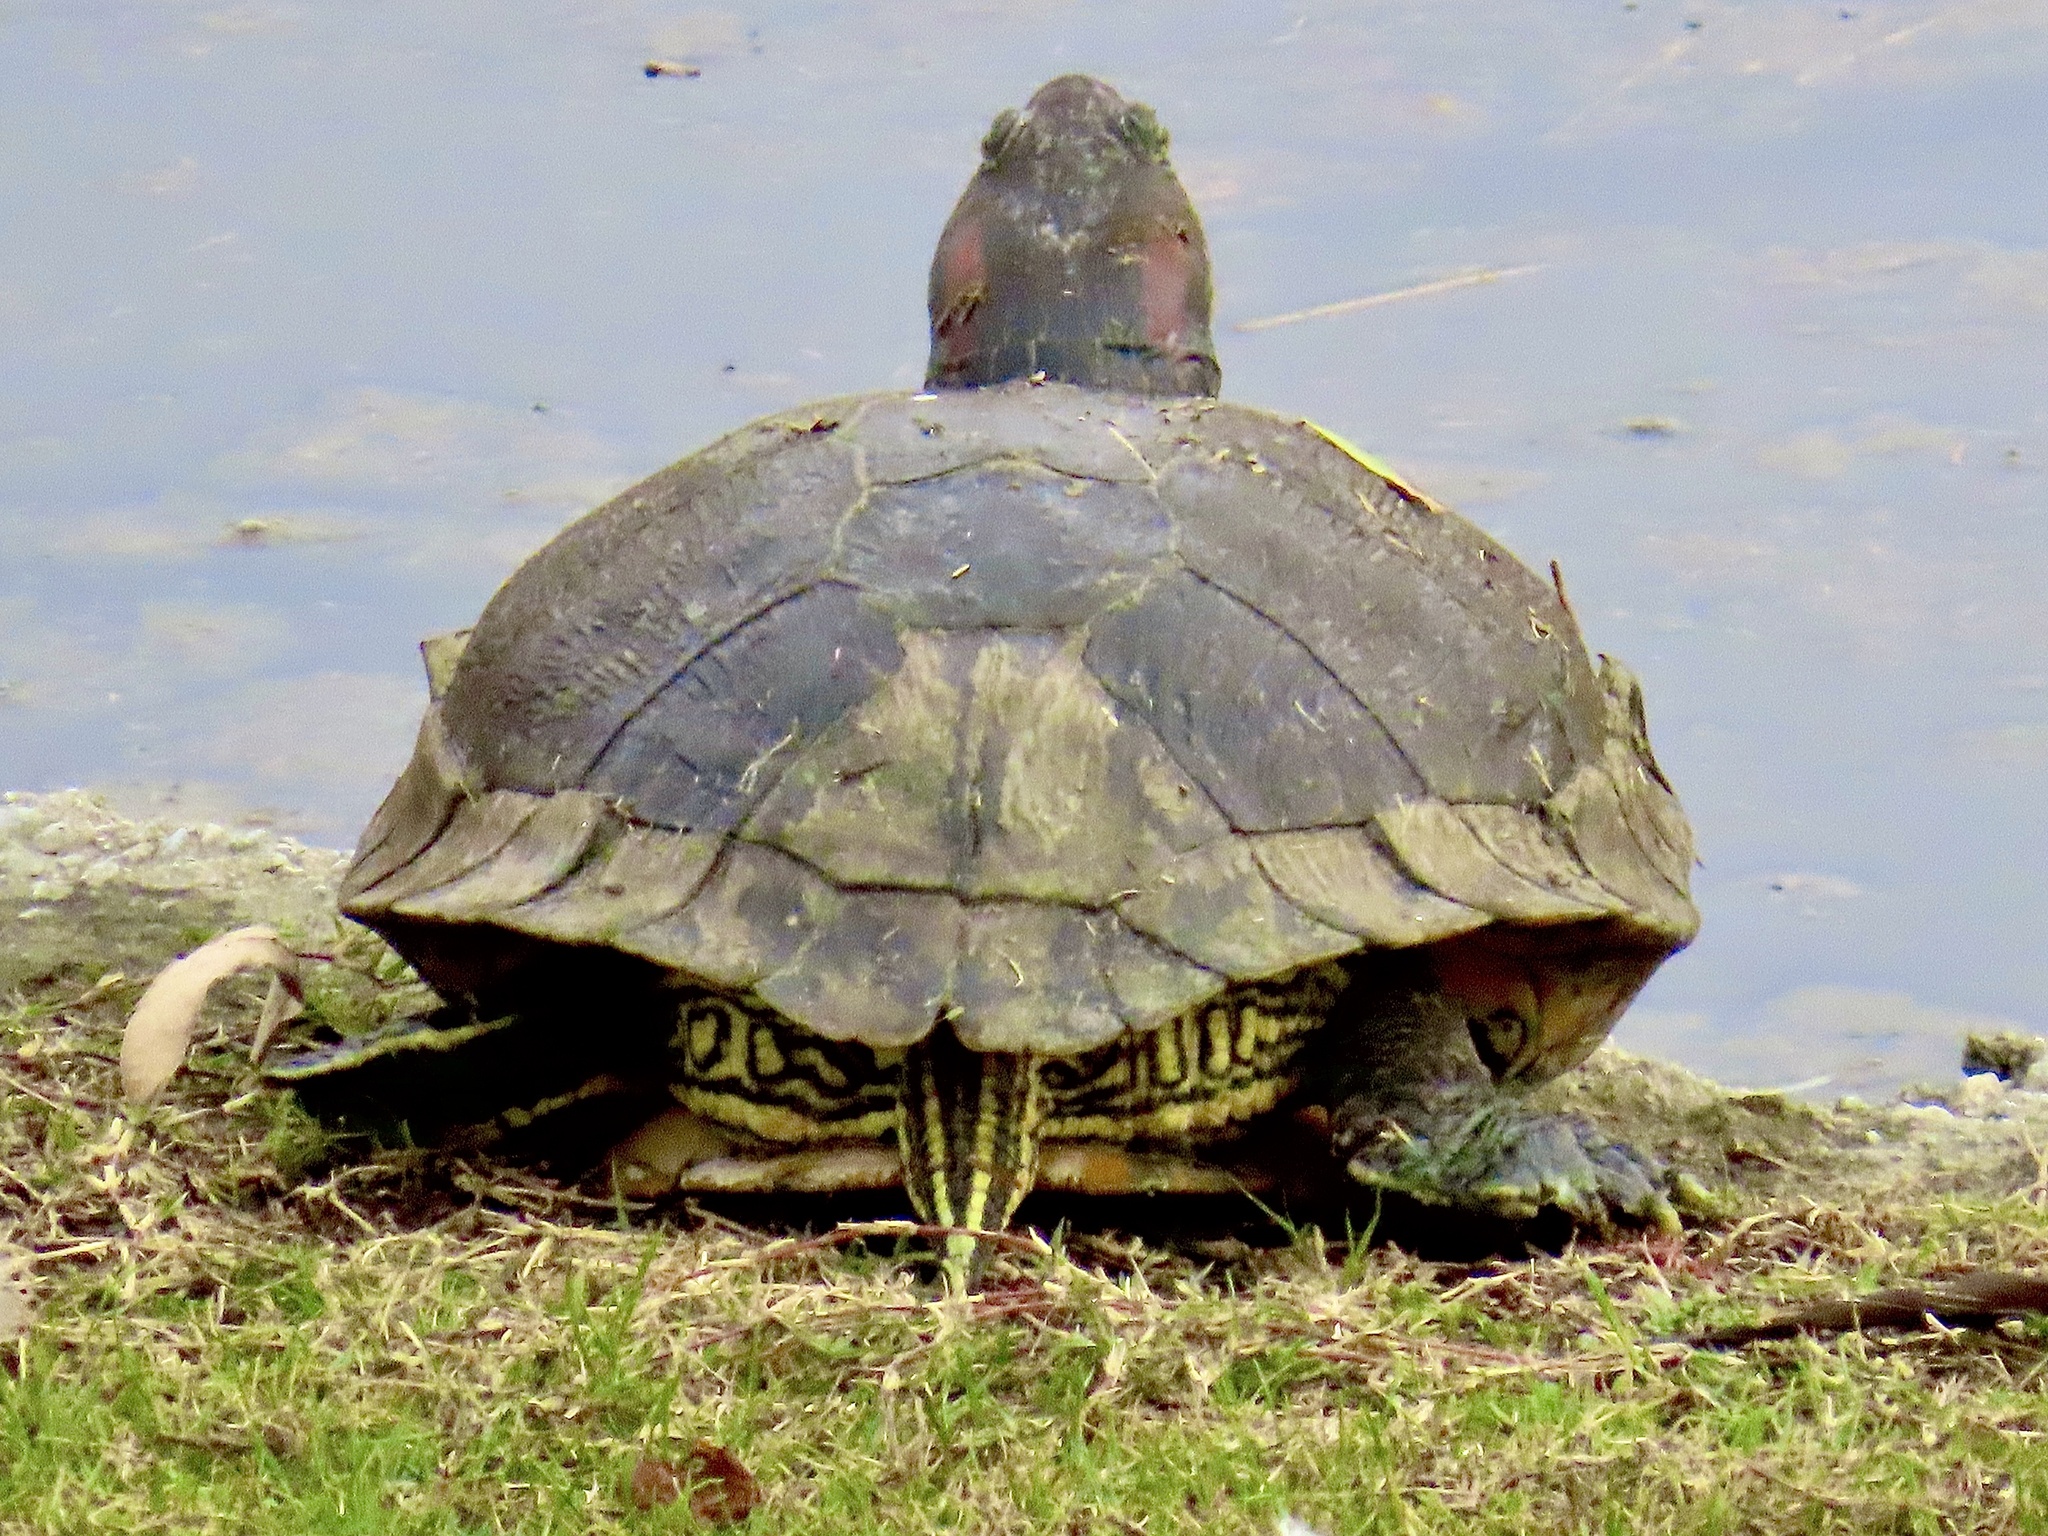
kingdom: Animalia
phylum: Chordata
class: Testudines
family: Emydidae
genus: Trachemys
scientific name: Trachemys scripta
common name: Slider
